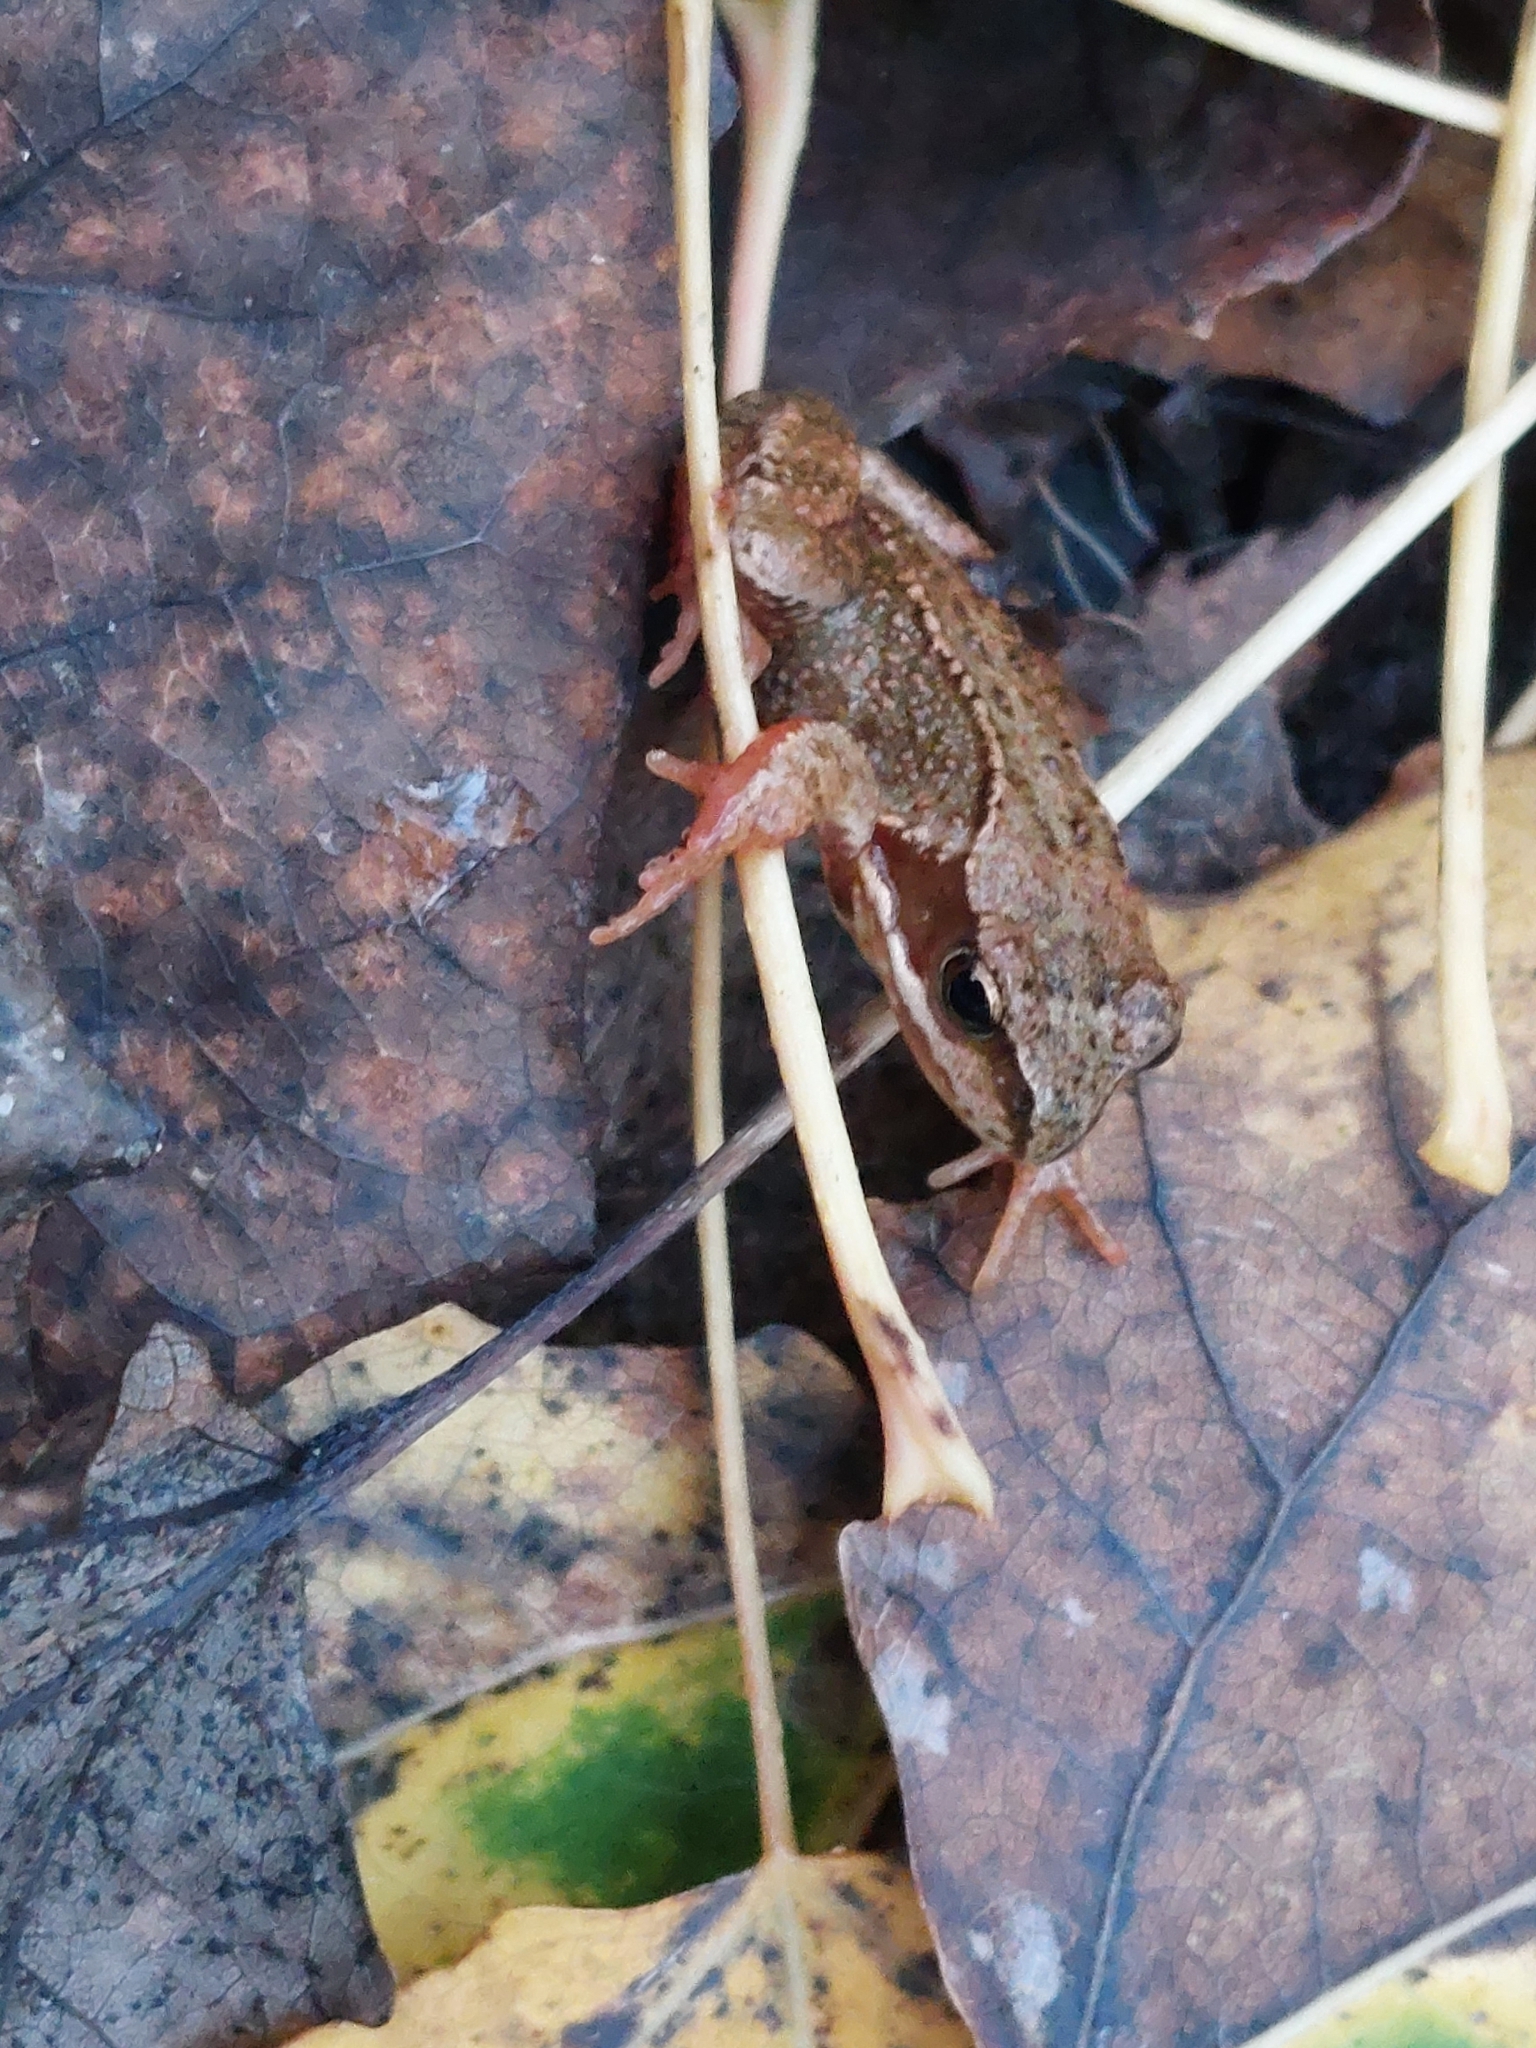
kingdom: Animalia
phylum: Chordata
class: Amphibia
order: Anura
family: Ranidae
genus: Rana
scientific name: Rana temporaria
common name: Common frog
